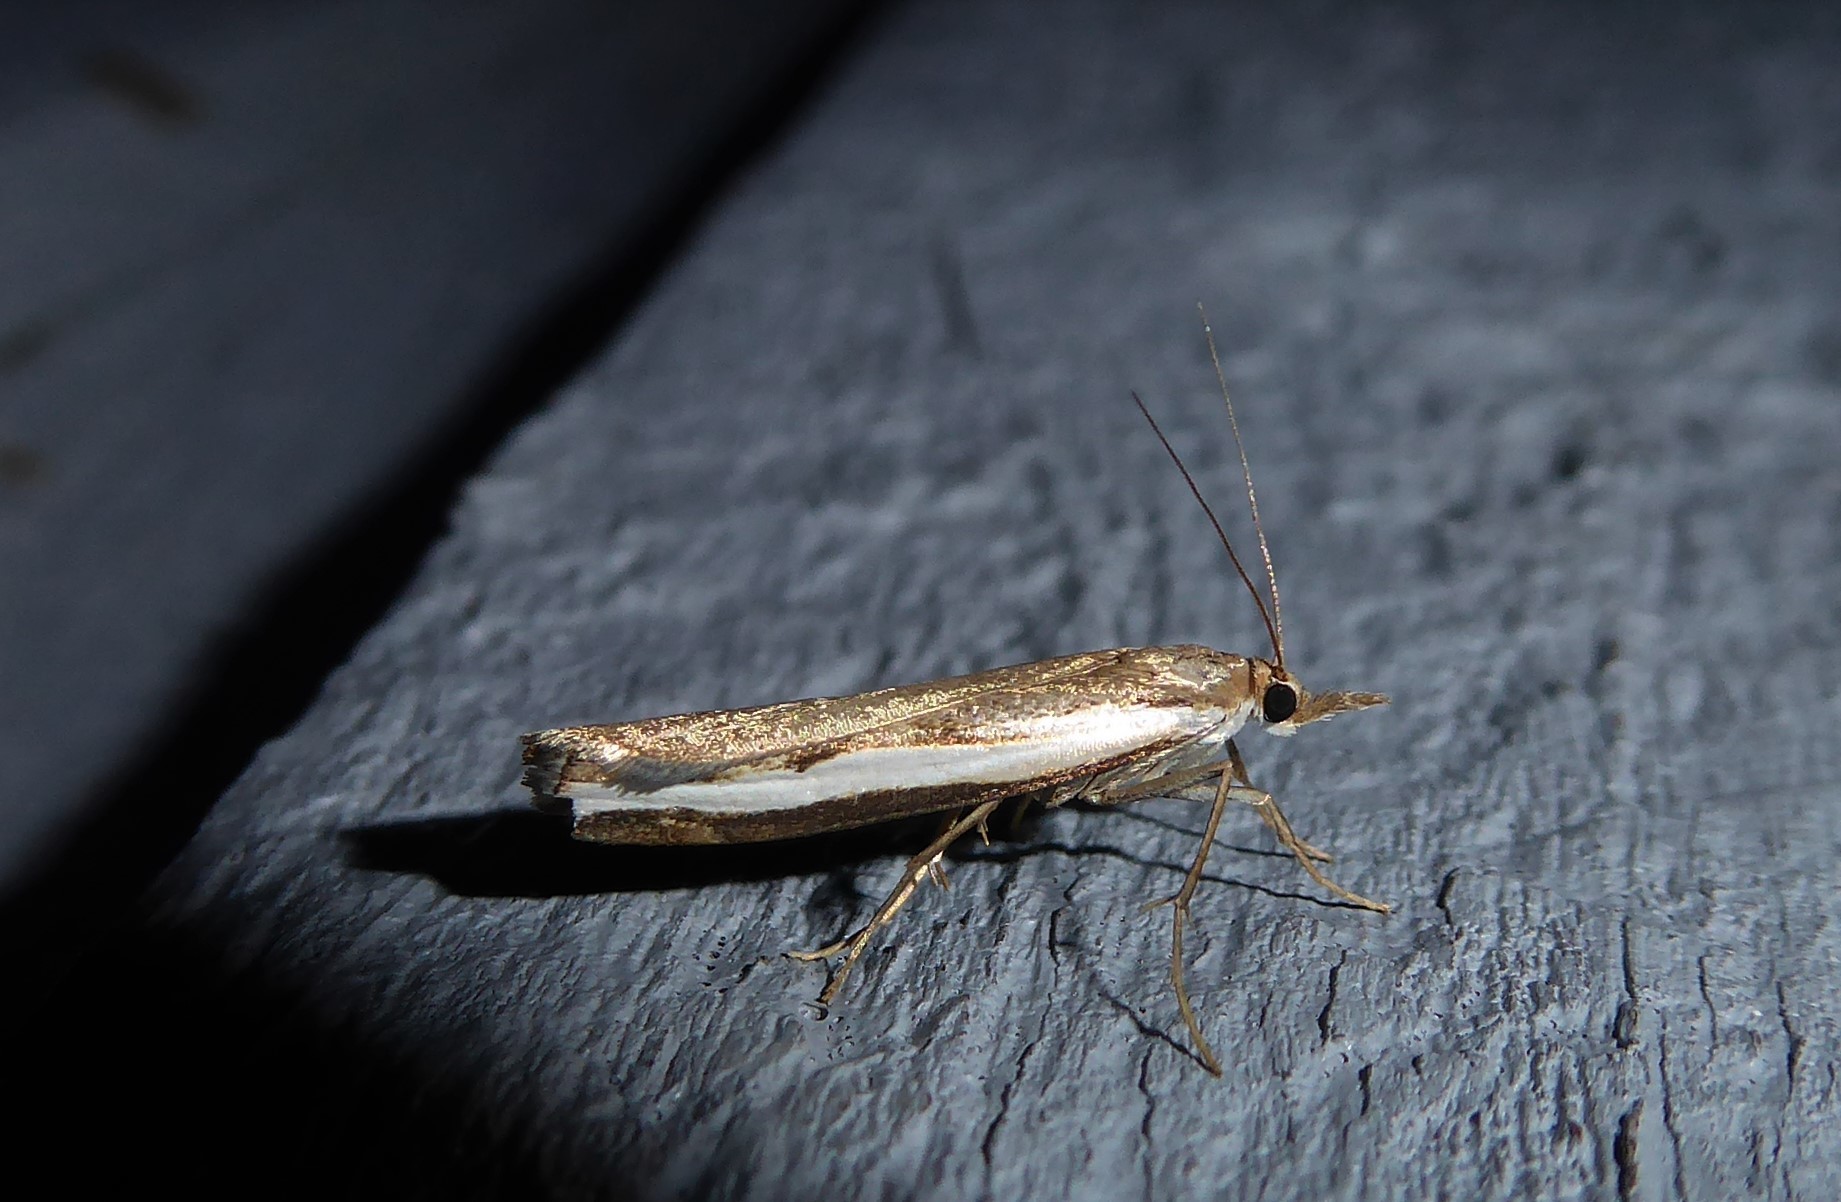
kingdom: Animalia
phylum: Arthropoda
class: Insecta
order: Lepidoptera
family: Crambidae
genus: Orocrambus
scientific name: Orocrambus flexuosellus
